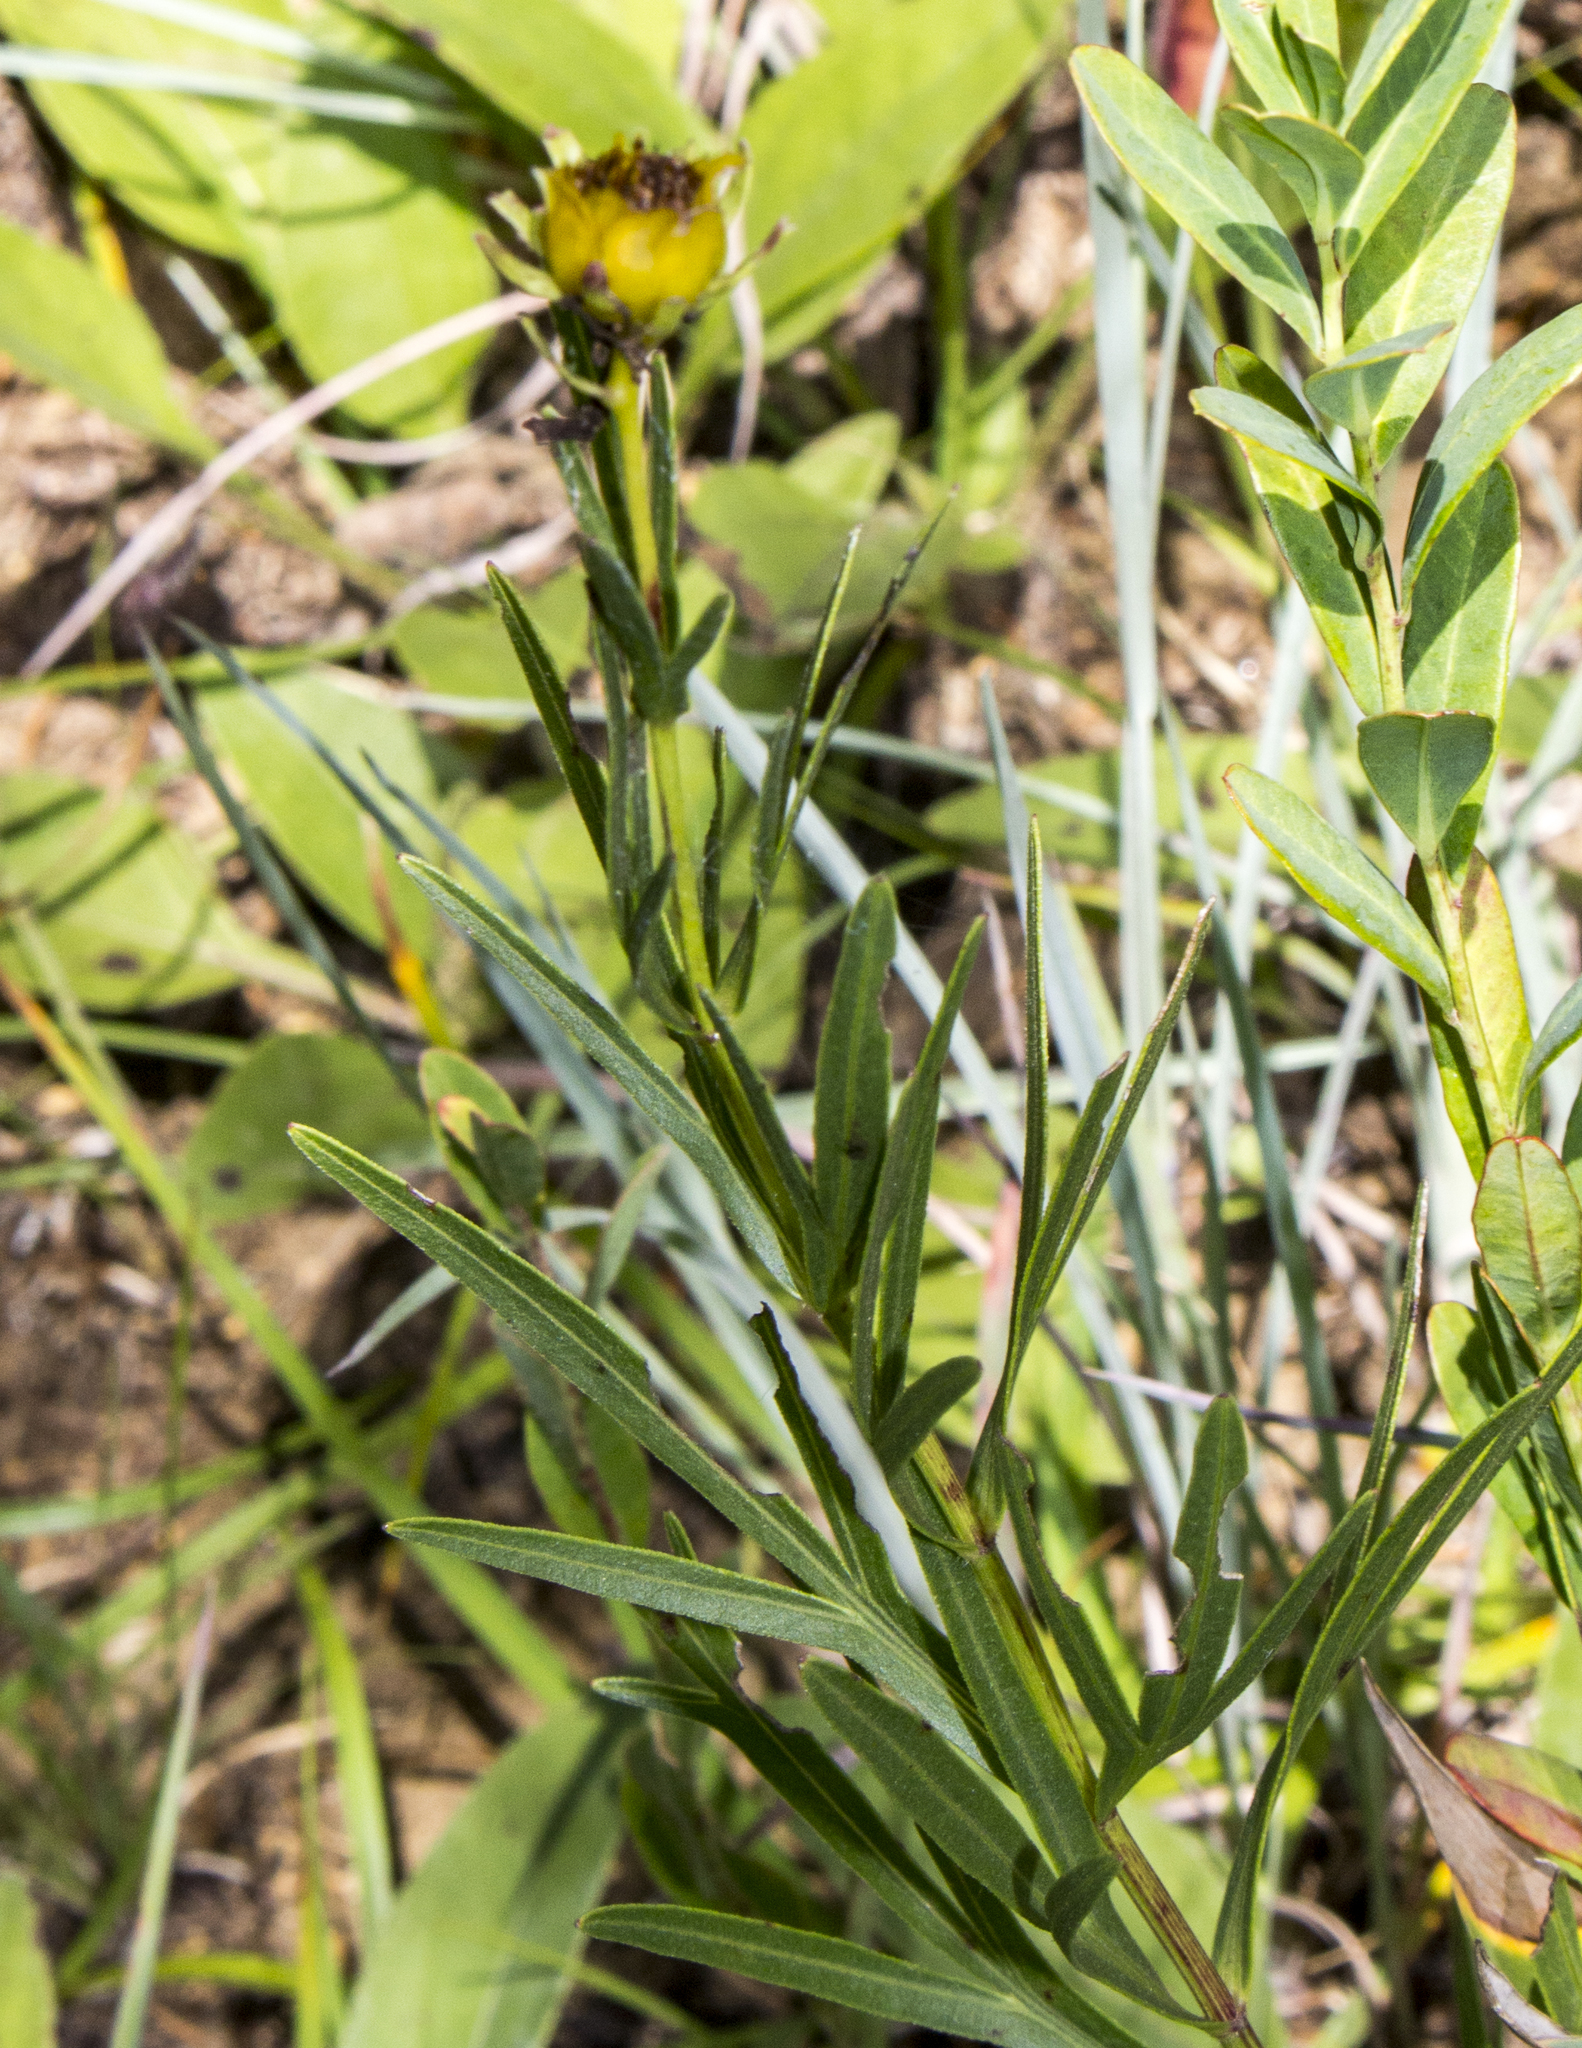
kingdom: Plantae
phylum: Tracheophyta
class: Magnoliopsida
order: Asterales
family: Asteraceae
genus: Coreopsis
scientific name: Coreopsis palmata
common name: Prairie coreopsis
